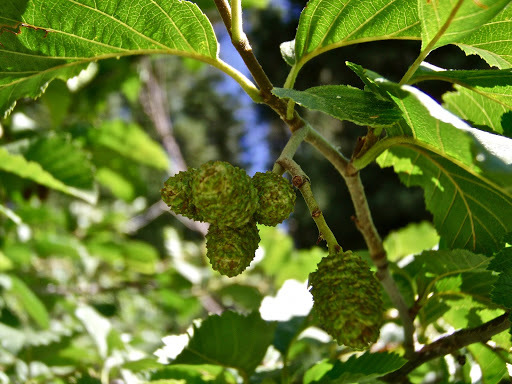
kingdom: Plantae
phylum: Tracheophyta
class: Magnoliopsida
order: Fagales
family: Betulaceae
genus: Alnus
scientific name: Alnus incana
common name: Grey alder
